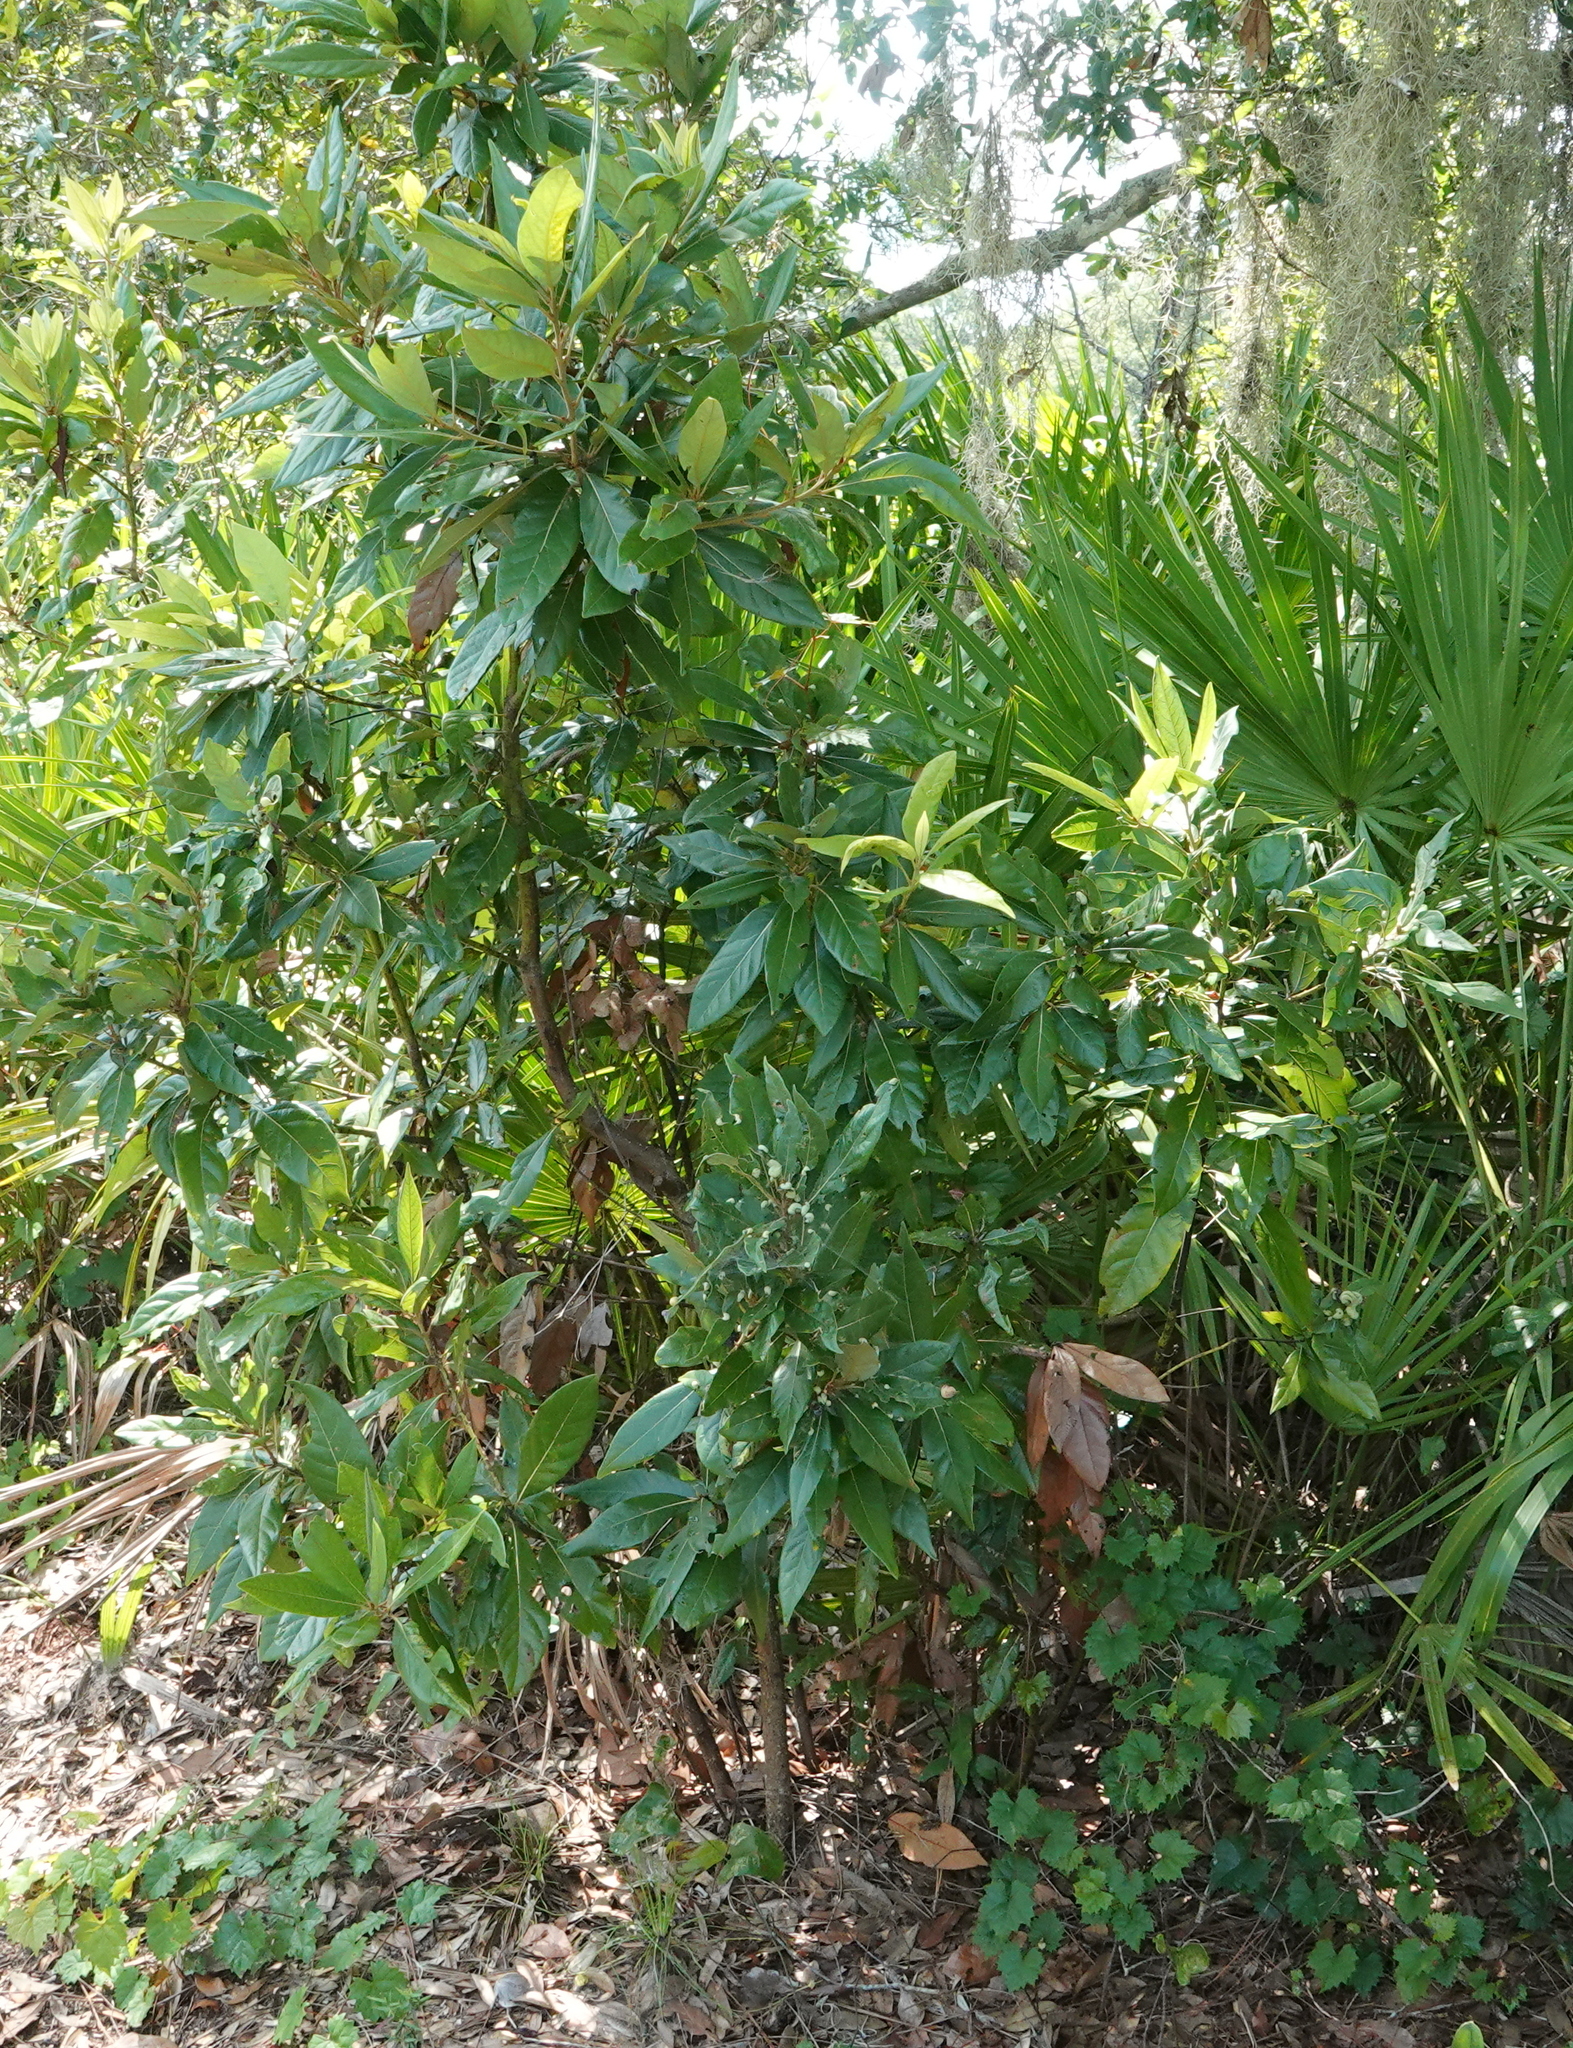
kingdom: Plantae
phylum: Tracheophyta
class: Magnoliopsida
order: Laurales
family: Lauraceae
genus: Persea
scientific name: Persea borbonia
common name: Redbay
